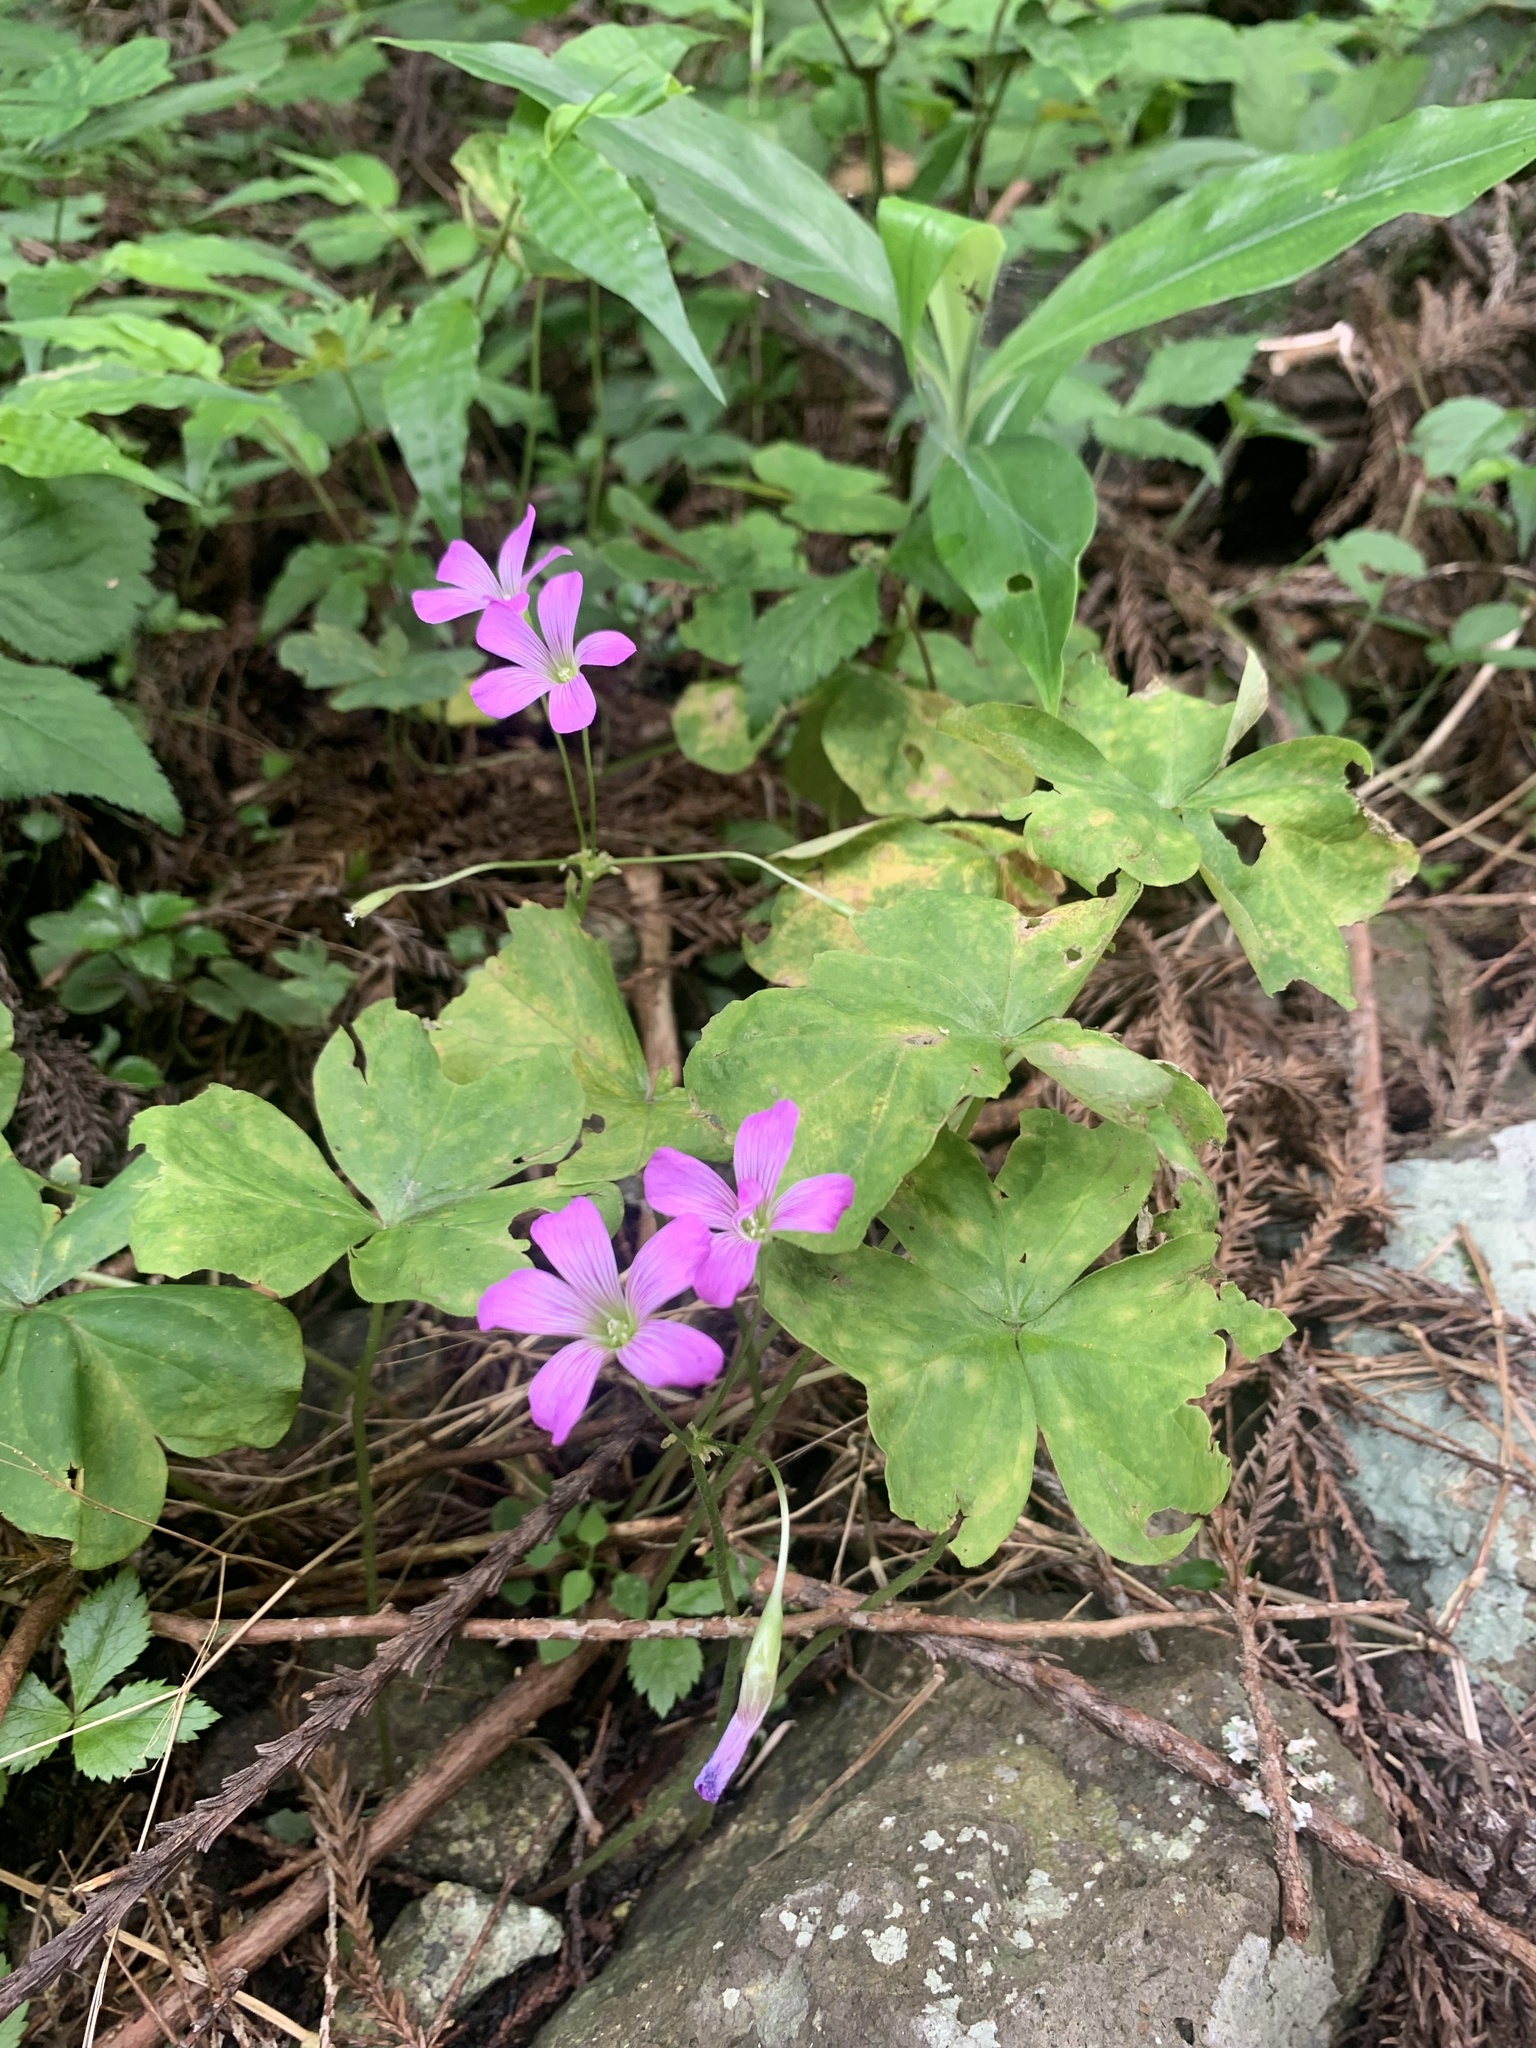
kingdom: Plantae
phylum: Tracheophyta
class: Magnoliopsida
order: Oxalidales
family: Oxalidaceae
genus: Oxalis
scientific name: Oxalis debilis
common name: Large-flowered pink-sorrel
